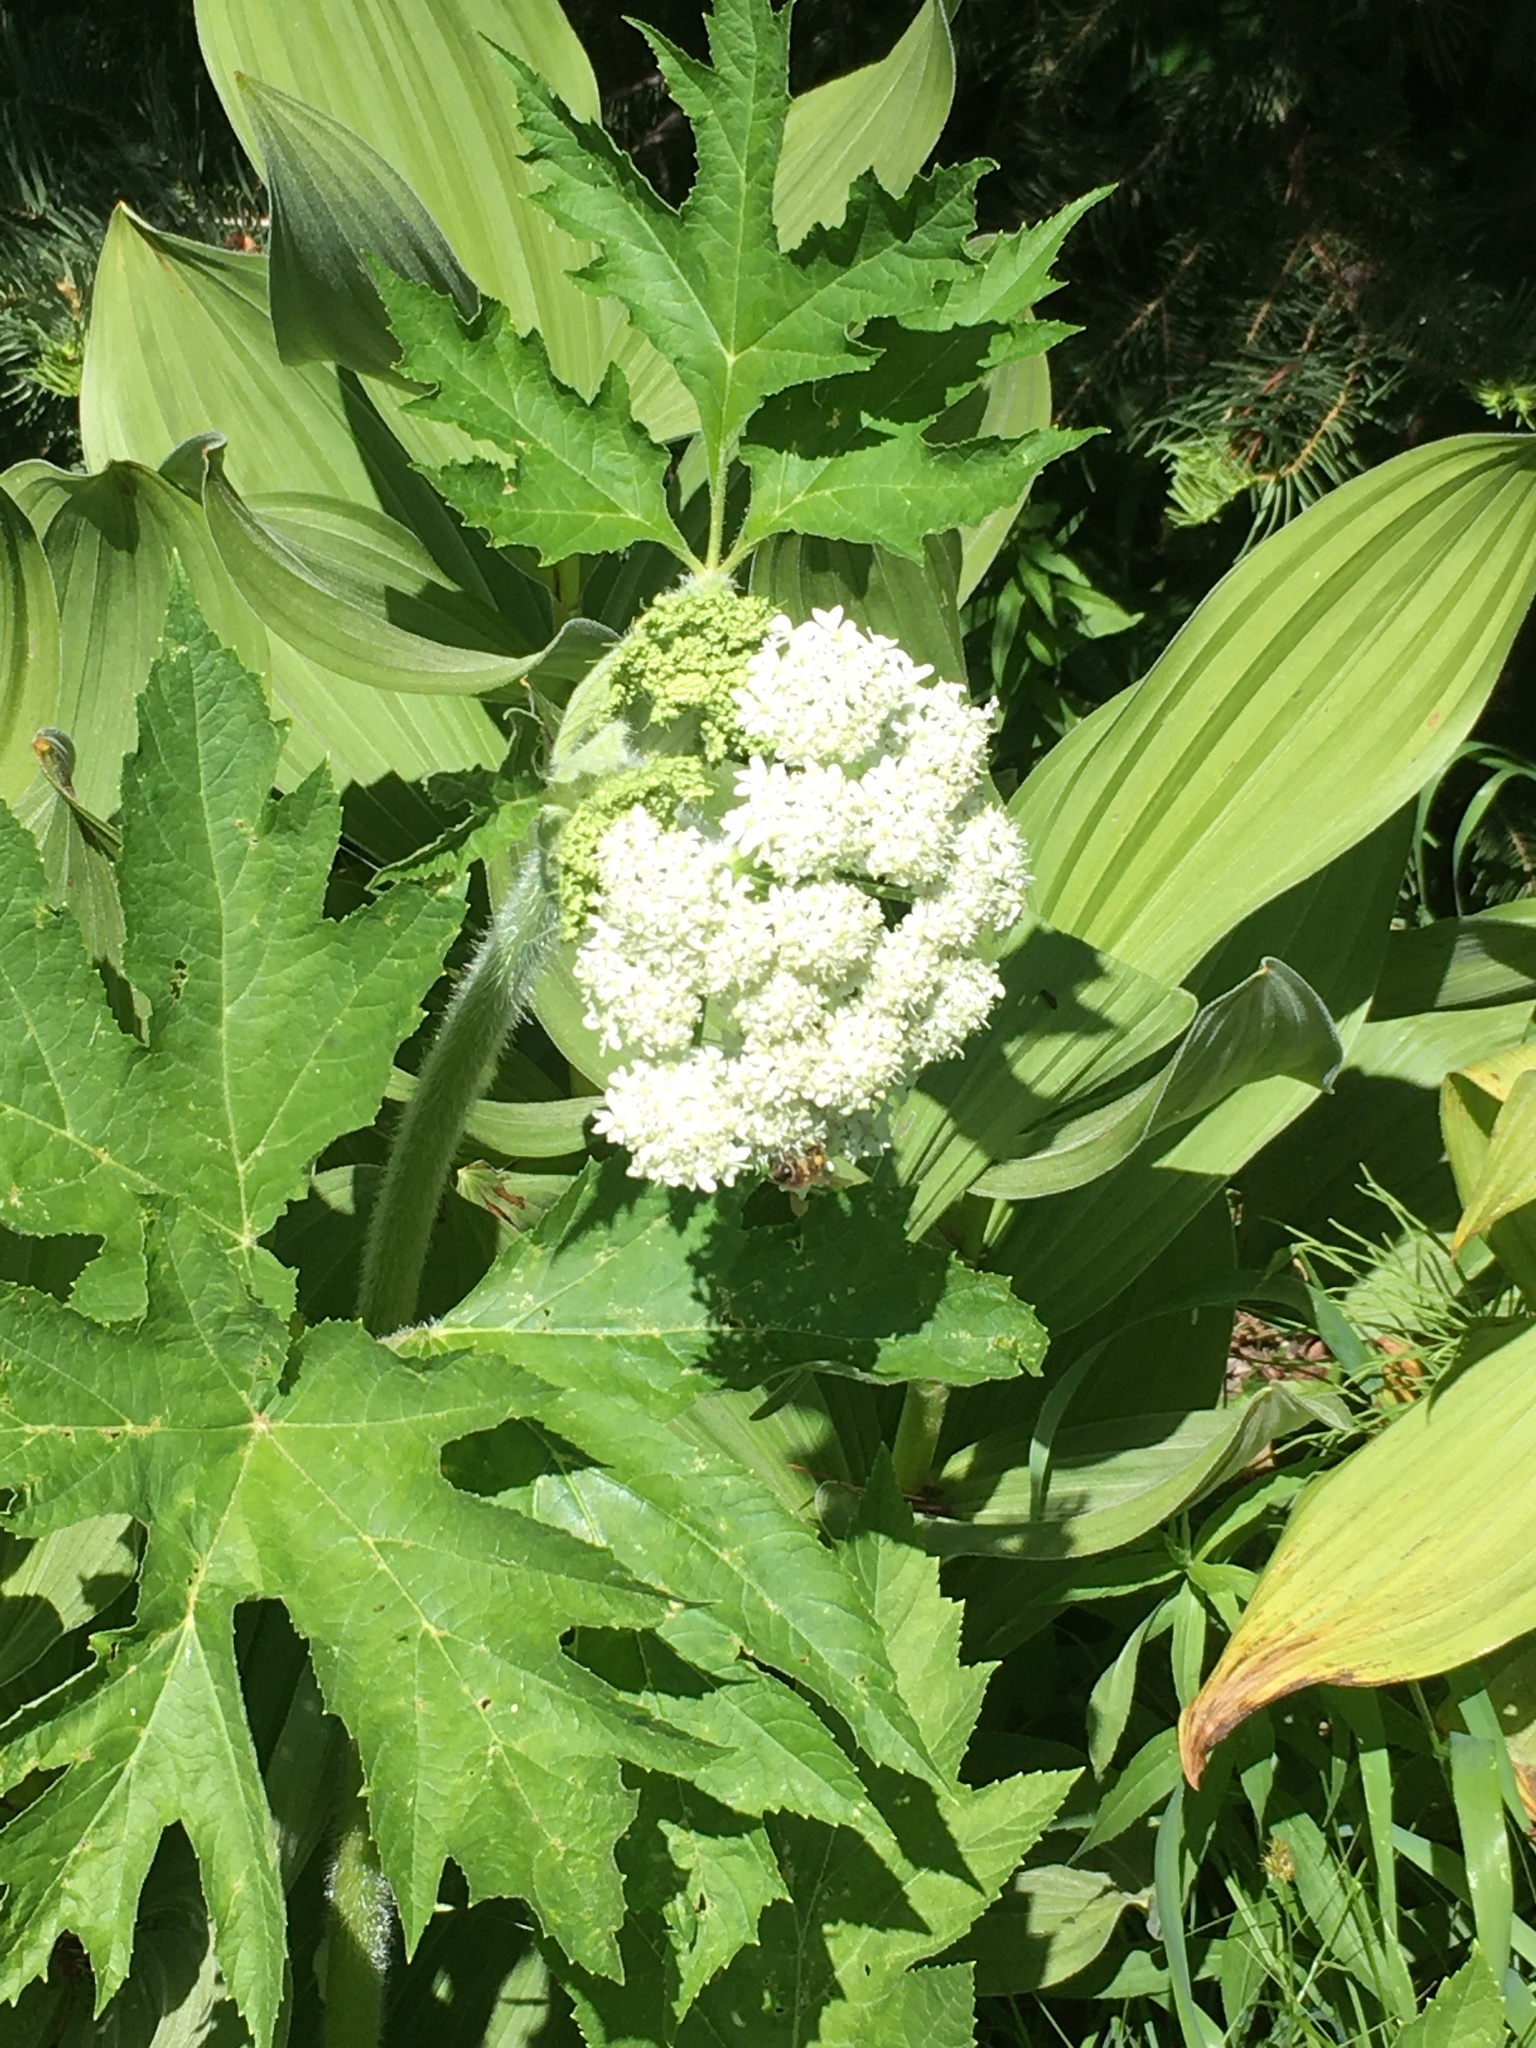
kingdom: Plantae
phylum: Tracheophyta
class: Magnoliopsida
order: Apiales
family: Apiaceae
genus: Heracleum
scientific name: Heracleum maximum
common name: American cow parsnip
